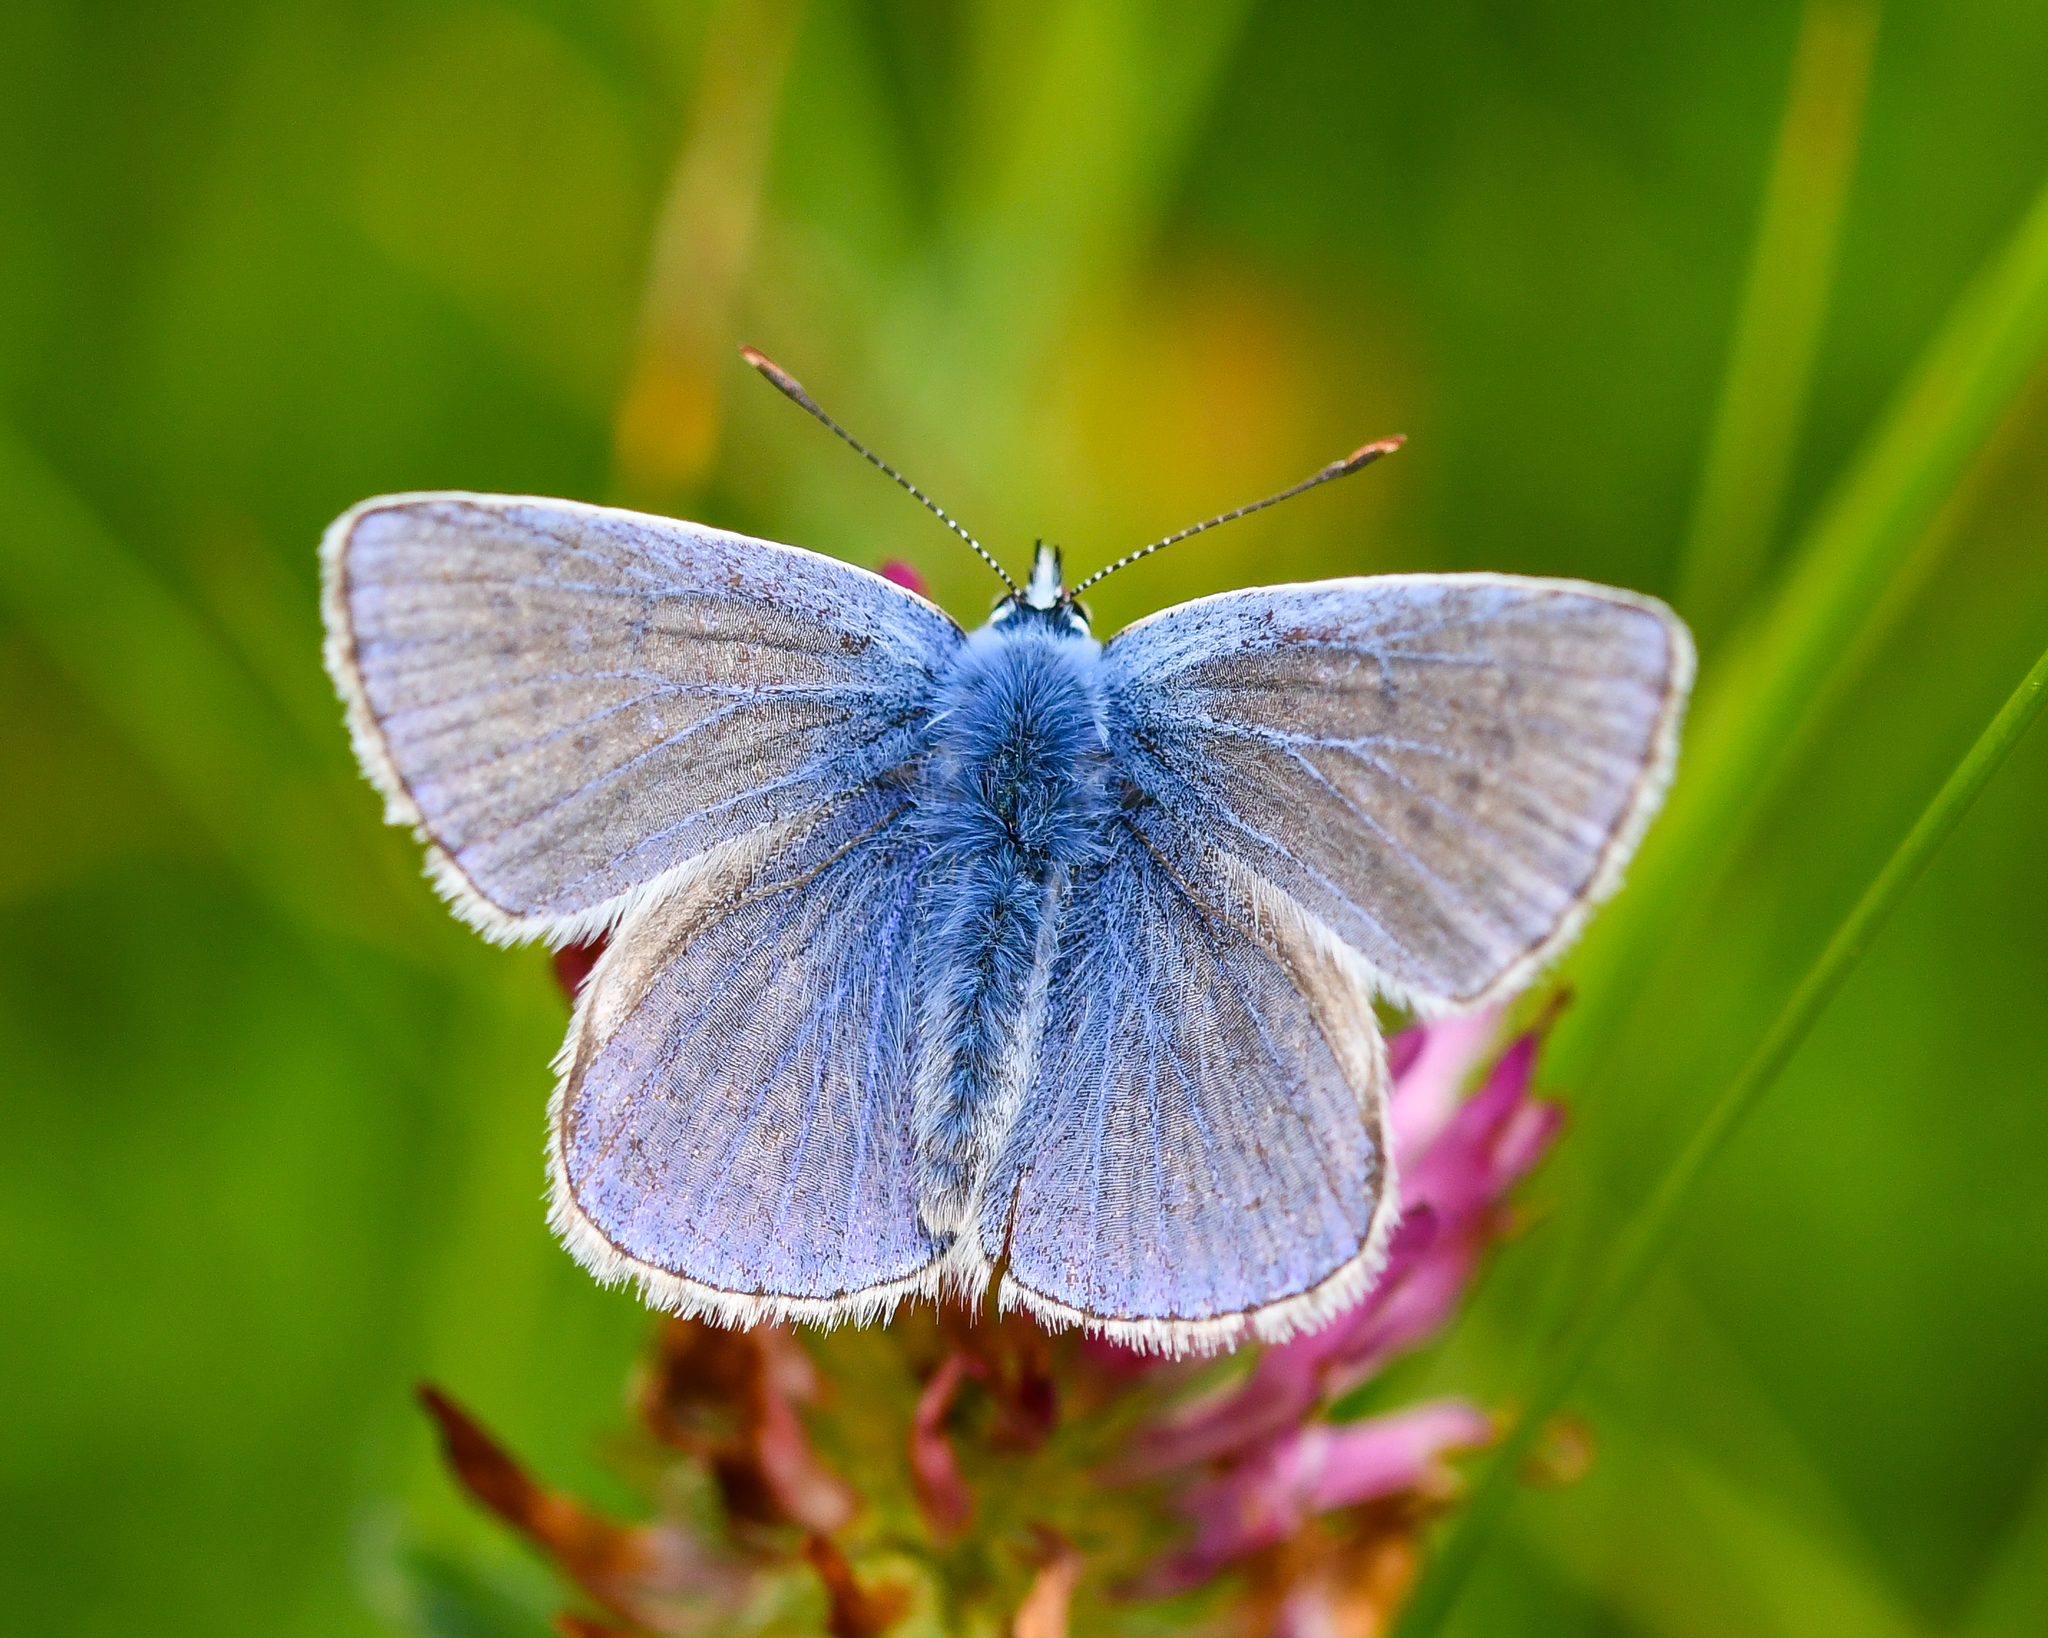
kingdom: Animalia
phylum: Arthropoda
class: Insecta
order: Lepidoptera
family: Lycaenidae
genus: Polyommatus
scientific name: Polyommatus icarus
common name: Common blue
